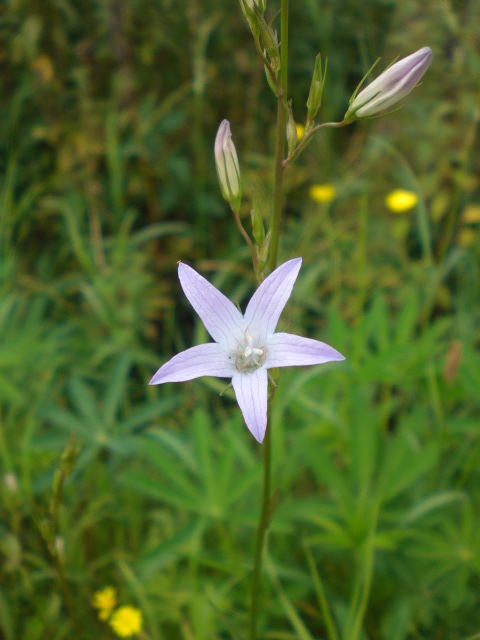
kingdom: Plantae
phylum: Tracheophyta
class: Magnoliopsida
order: Asterales
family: Campanulaceae
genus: Campanula
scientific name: Campanula rapunculus
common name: Rampion bellflower
